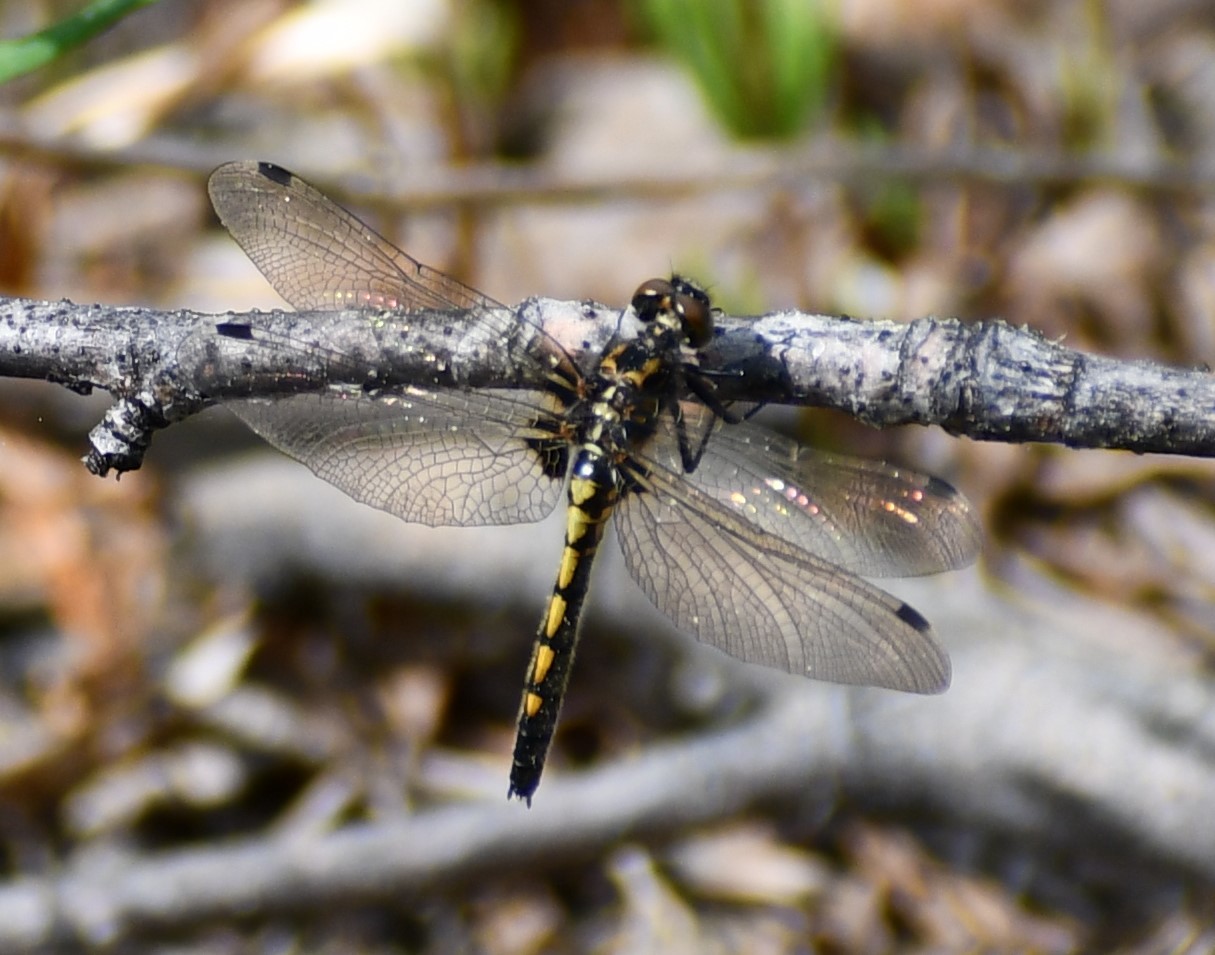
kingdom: Animalia
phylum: Arthropoda
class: Insecta
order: Odonata
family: Libellulidae
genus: Leucorrhinia
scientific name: Leucorrhinia hudsonica
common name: Hudsonian whiteface
